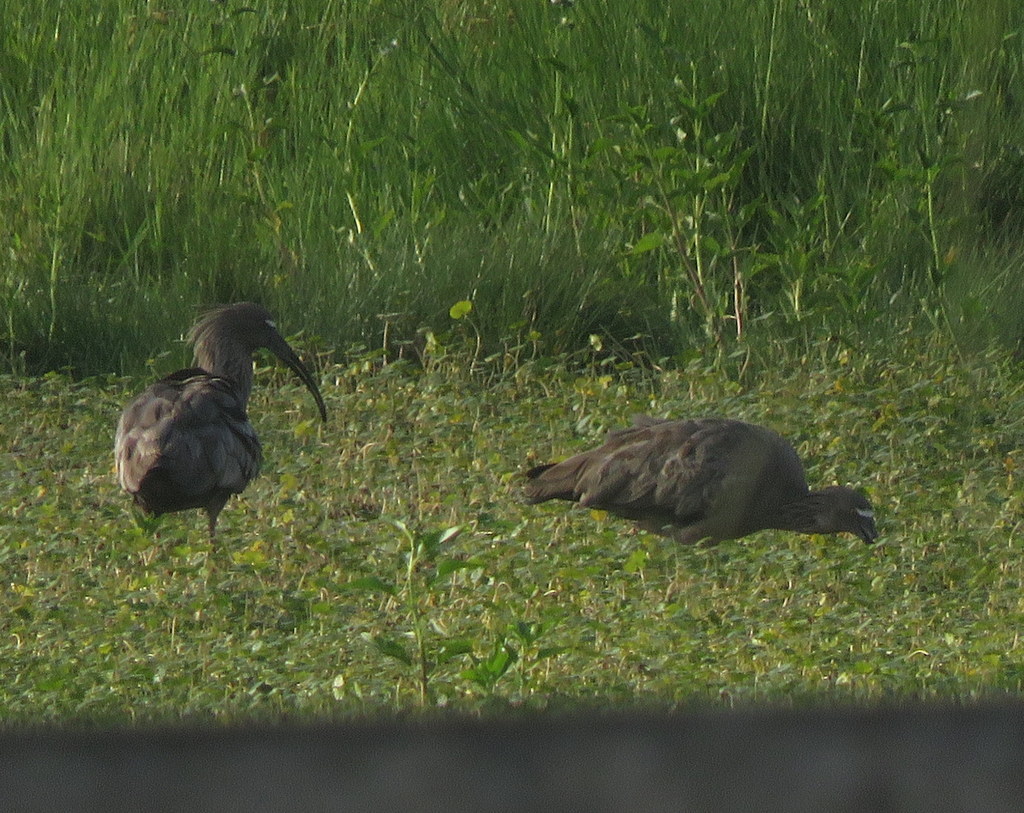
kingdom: Animalia
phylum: Chordata
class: Aves
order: Pelecaniformes
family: Threskiornithidae
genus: Theristicus
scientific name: Theristicus caerulescens
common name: Plumbeous ibis
